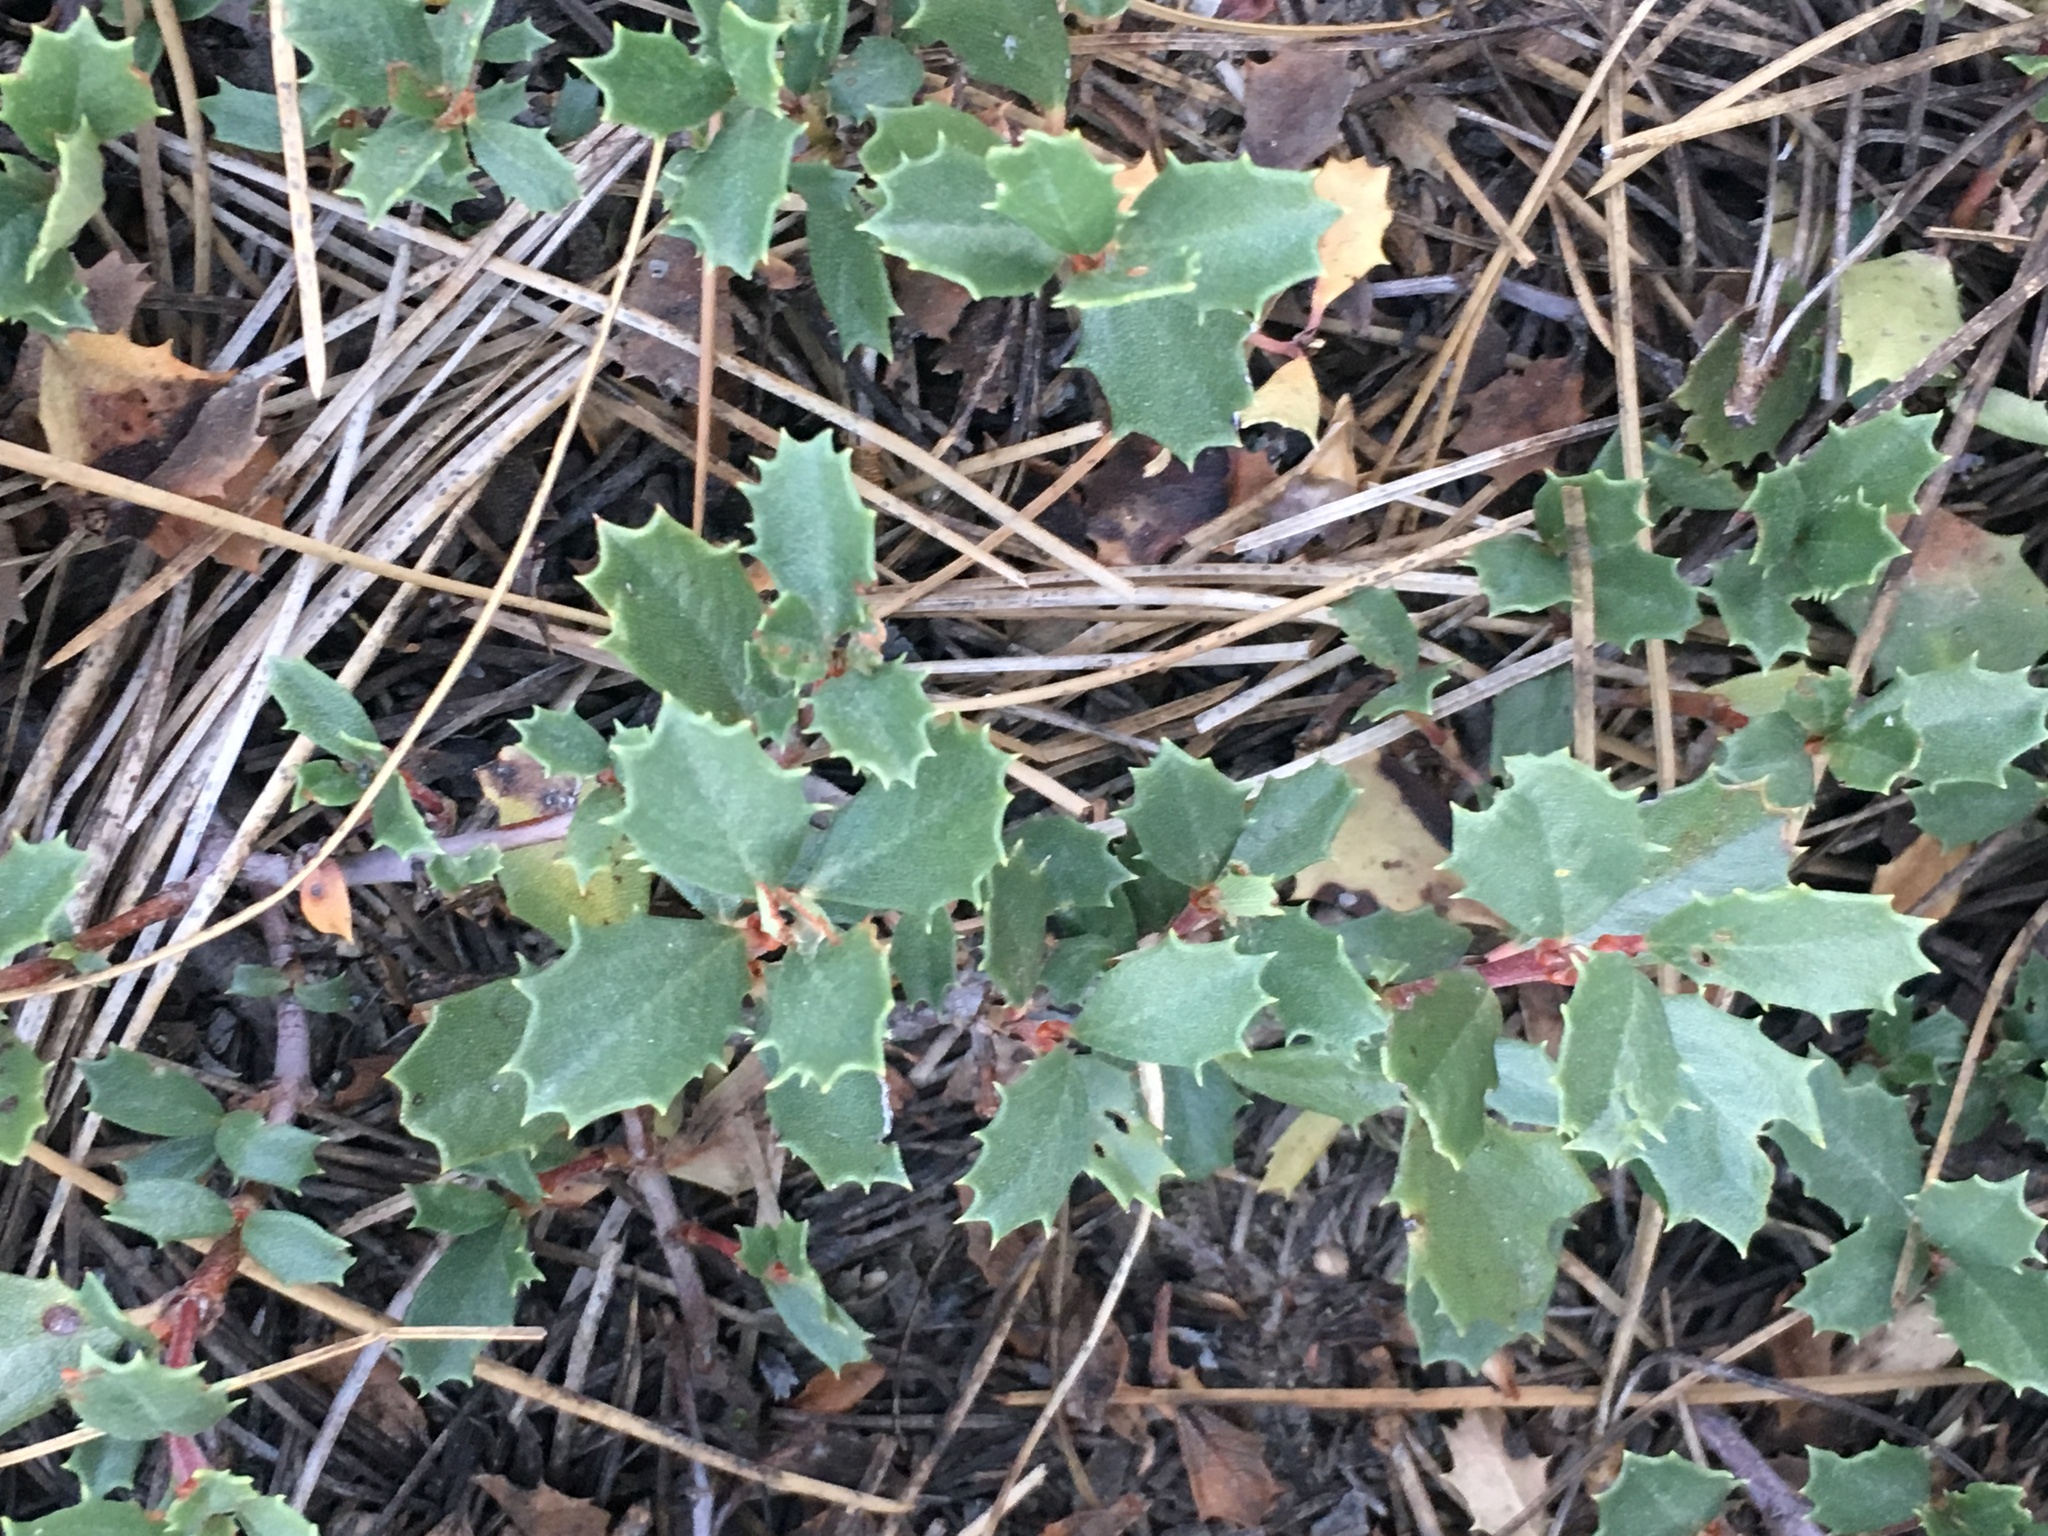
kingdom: Plantae
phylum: Tracheophyta
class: Magnoliopsida
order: Rosales
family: Rhamnaceae
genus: Ceanothus
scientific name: Ceanothus prostratus
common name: Mahala-mat
